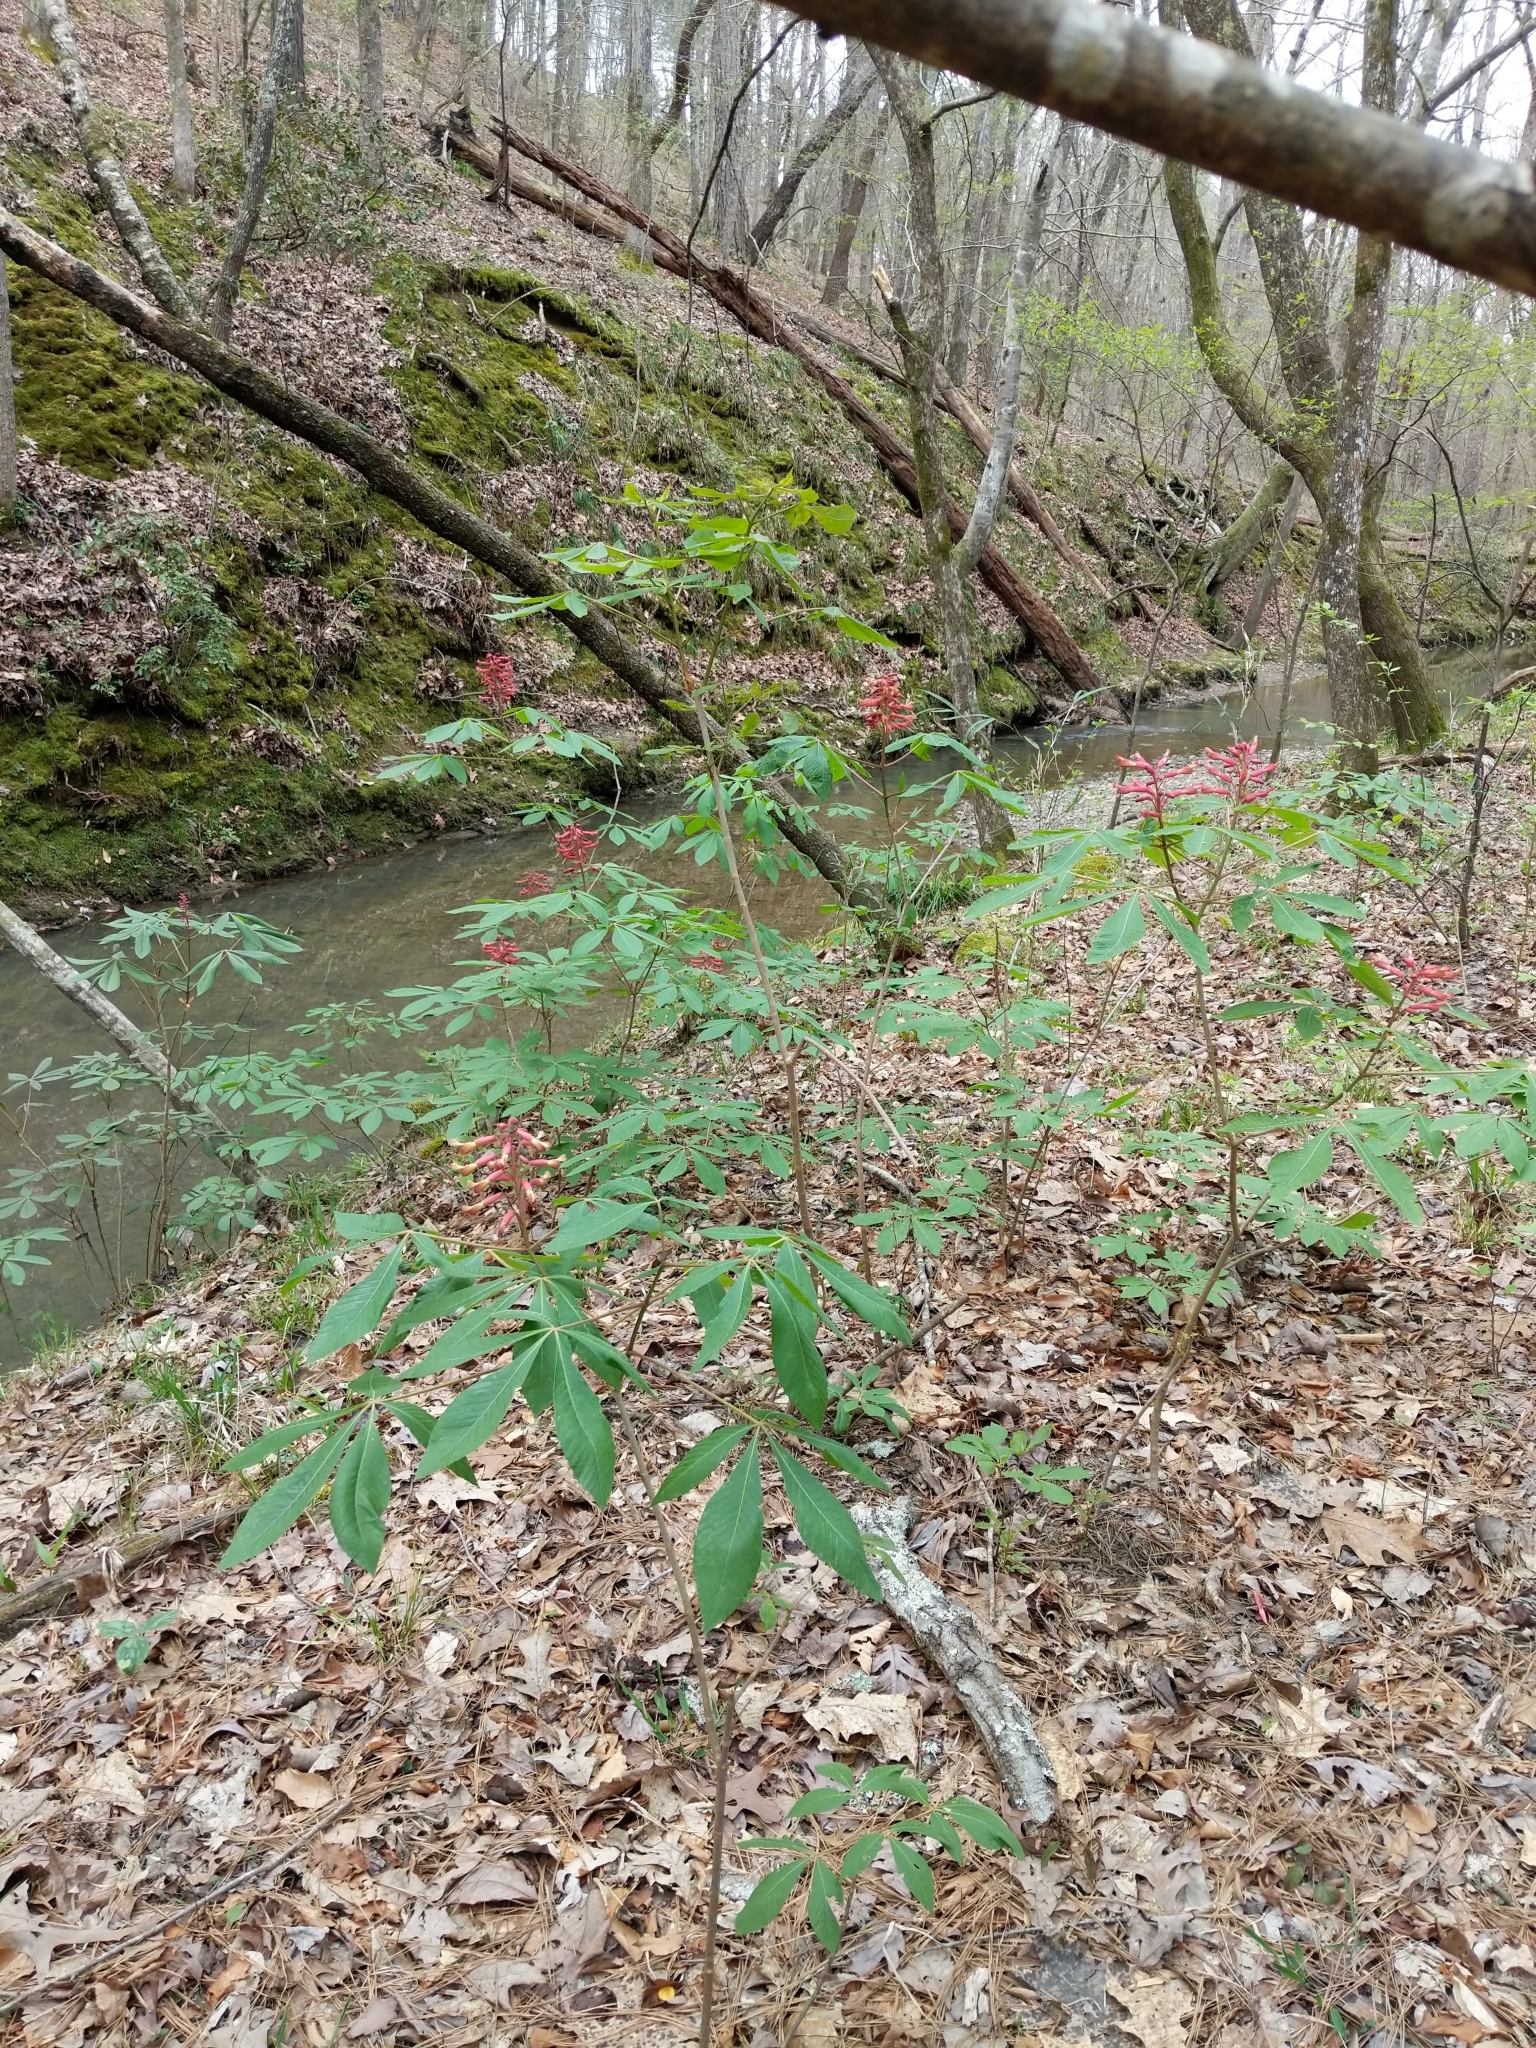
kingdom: Plantae
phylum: Tracheophyta
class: Magnoliopsida
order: Sapindales
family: Sapindaceae
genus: Aesculus
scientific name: Aesculus pavia
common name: Red buckeye
